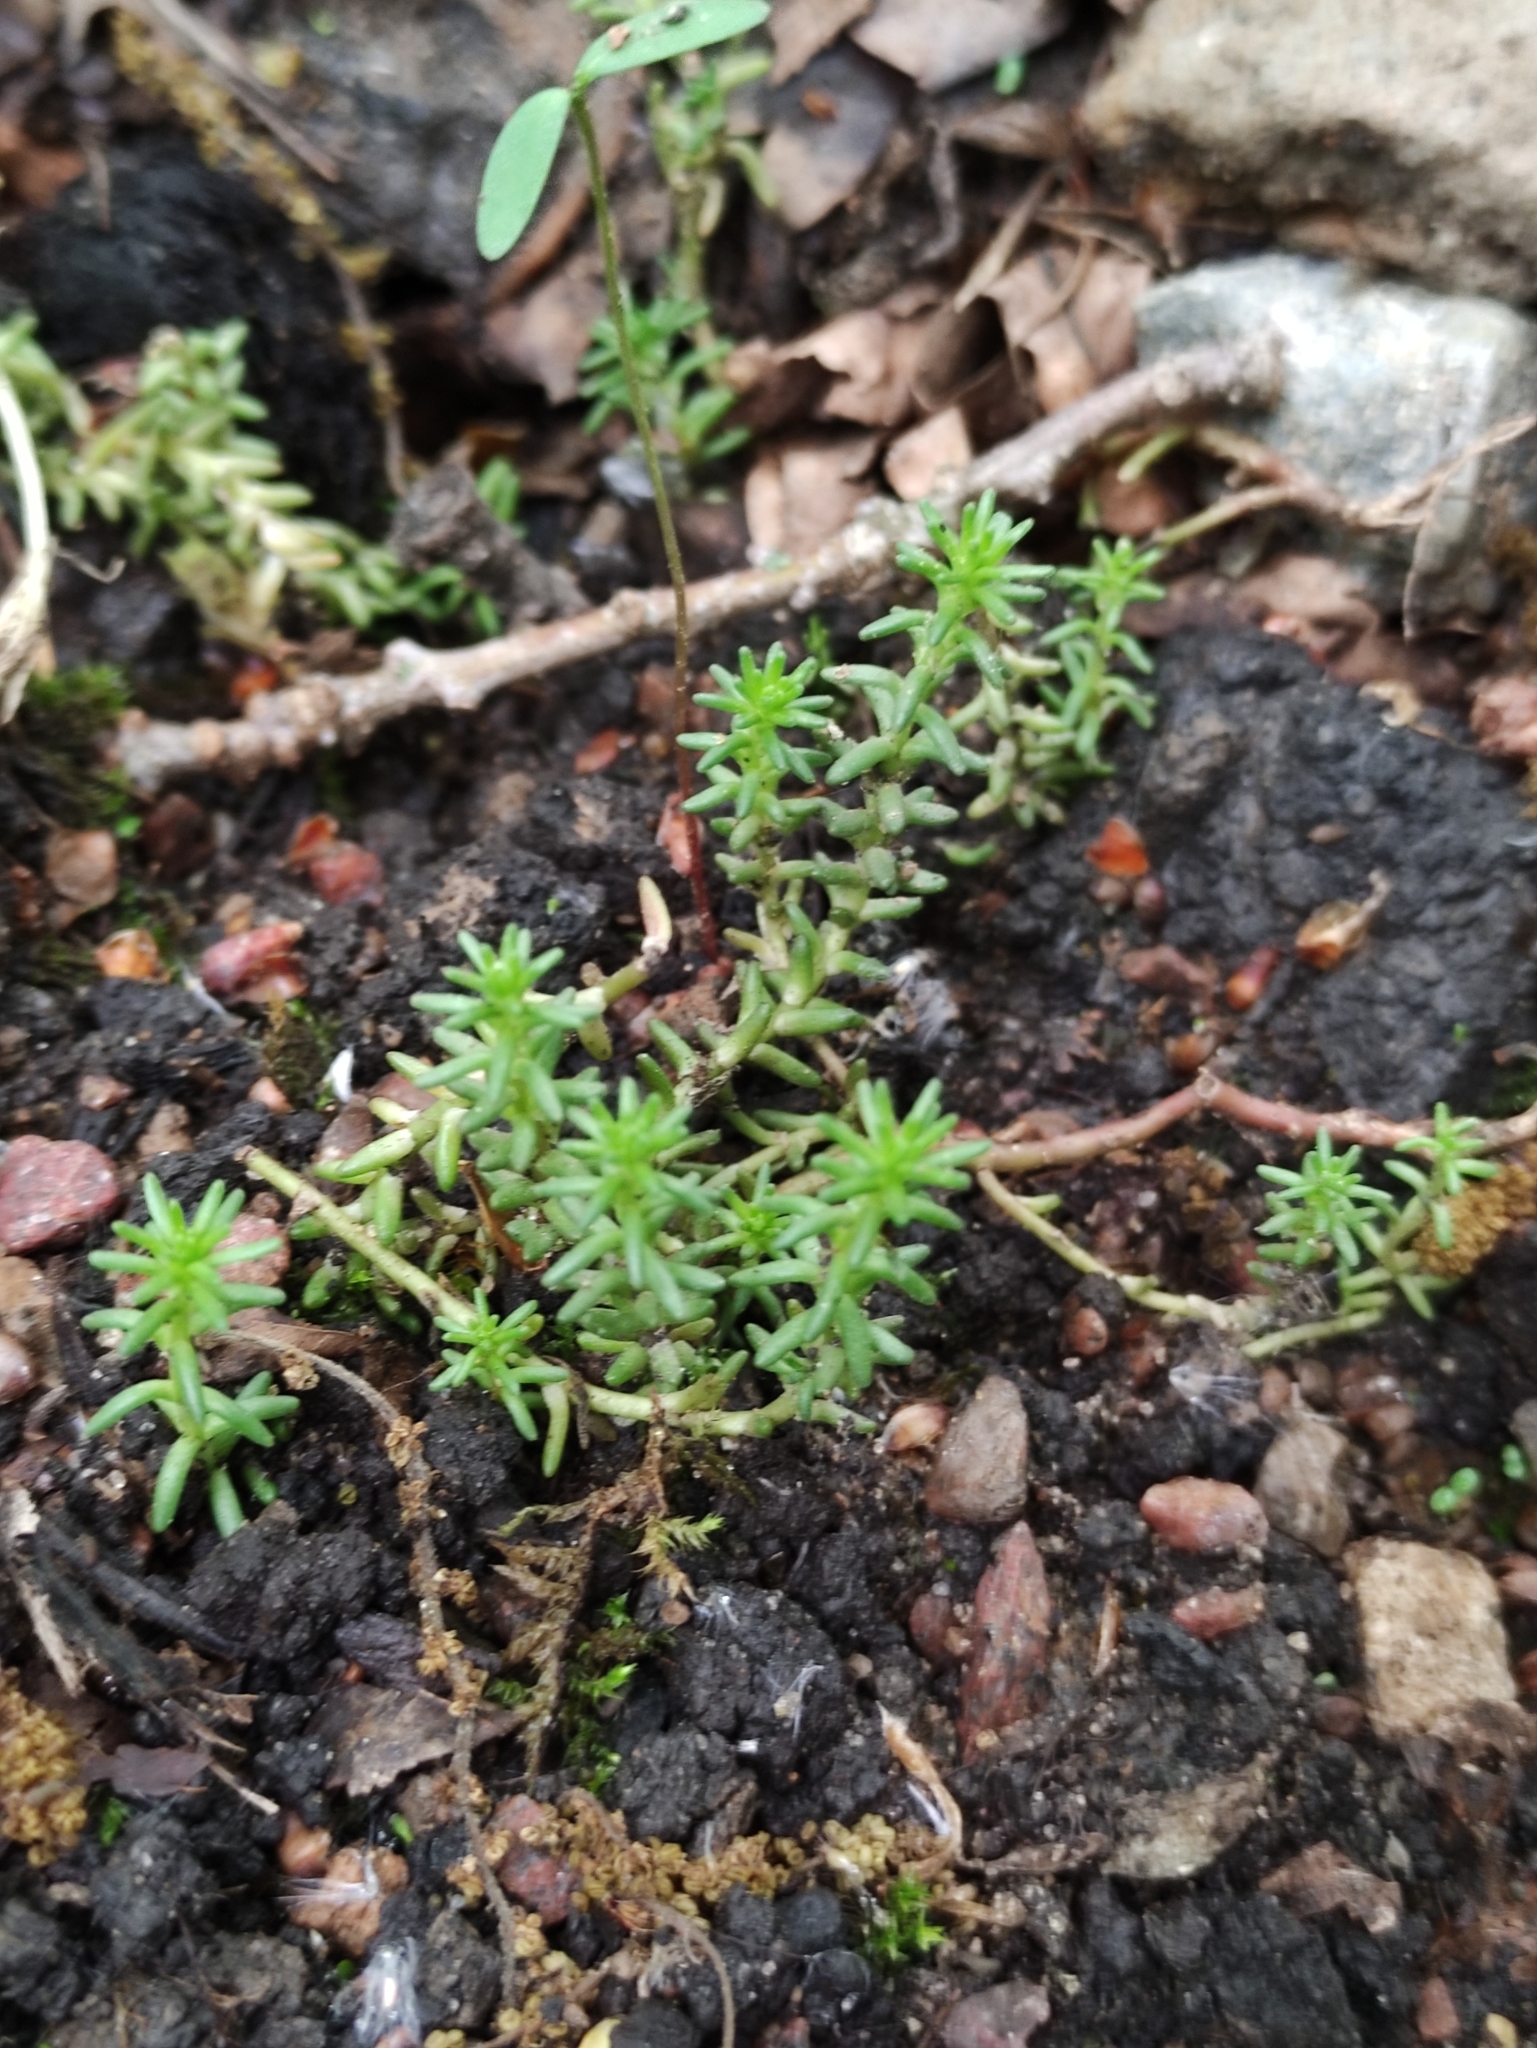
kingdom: Plantae
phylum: Tracheophyta
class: Magnoliopsida
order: Saxifragales
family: Crassulaceae
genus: Sedum
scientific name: Sedum sexangulare
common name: Tasteless stonecrop
